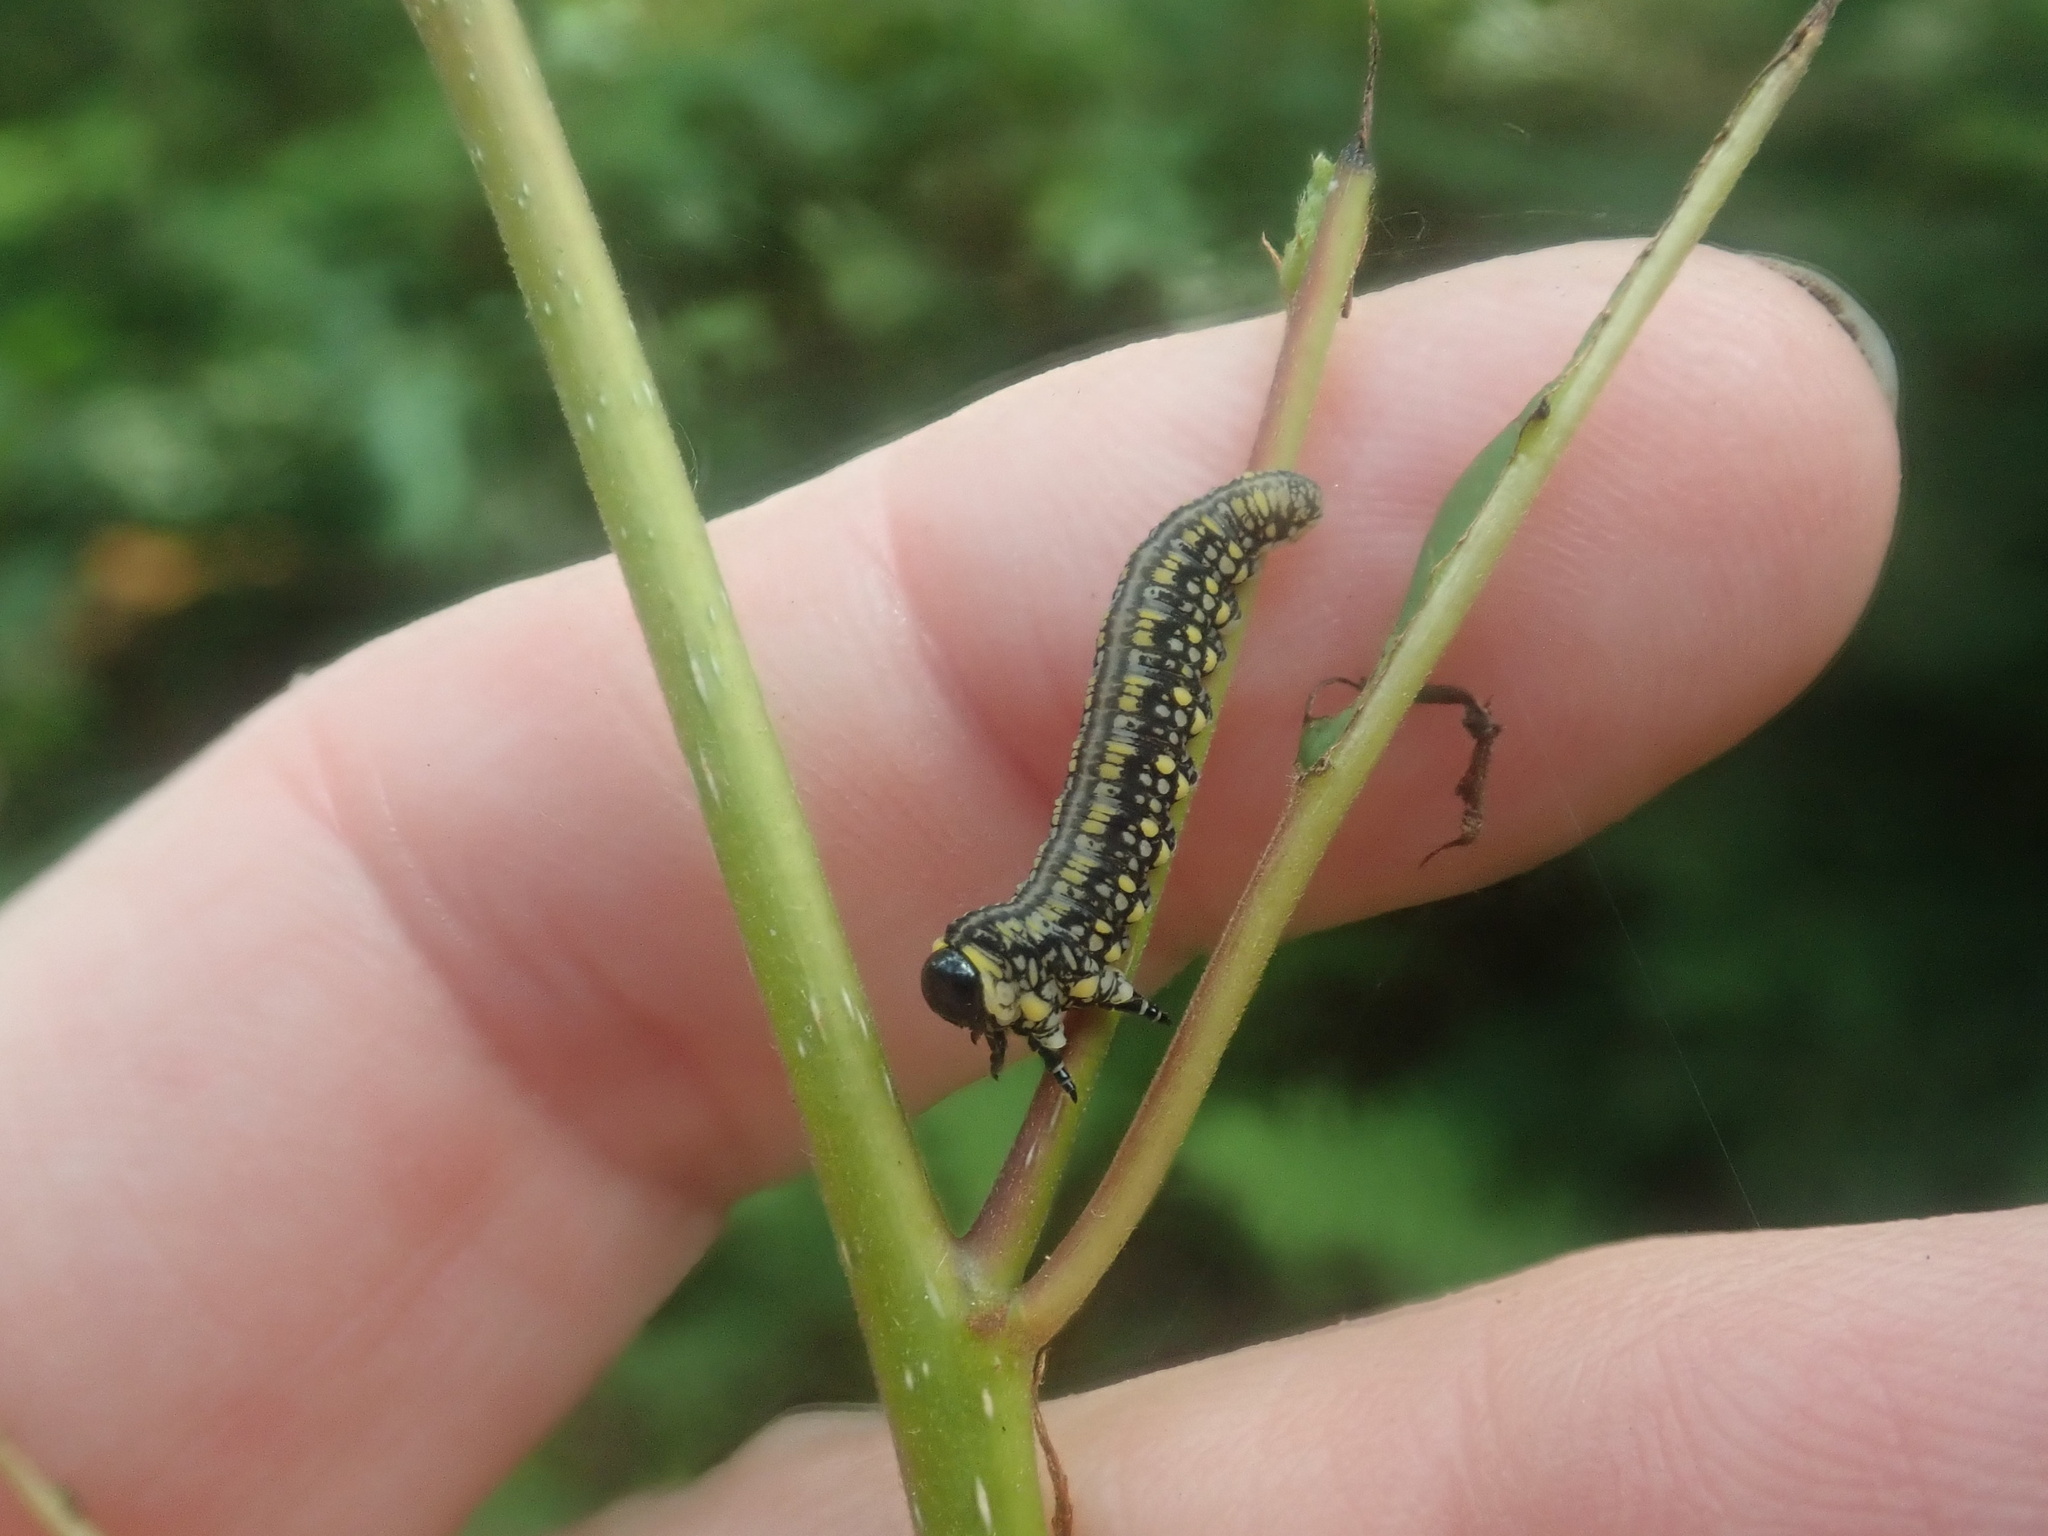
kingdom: Animalia
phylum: Arthropoda
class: Insecta
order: Hymenoptera
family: Diprionidae
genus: Diprion
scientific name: Diprion similis
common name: Pine sawfly
